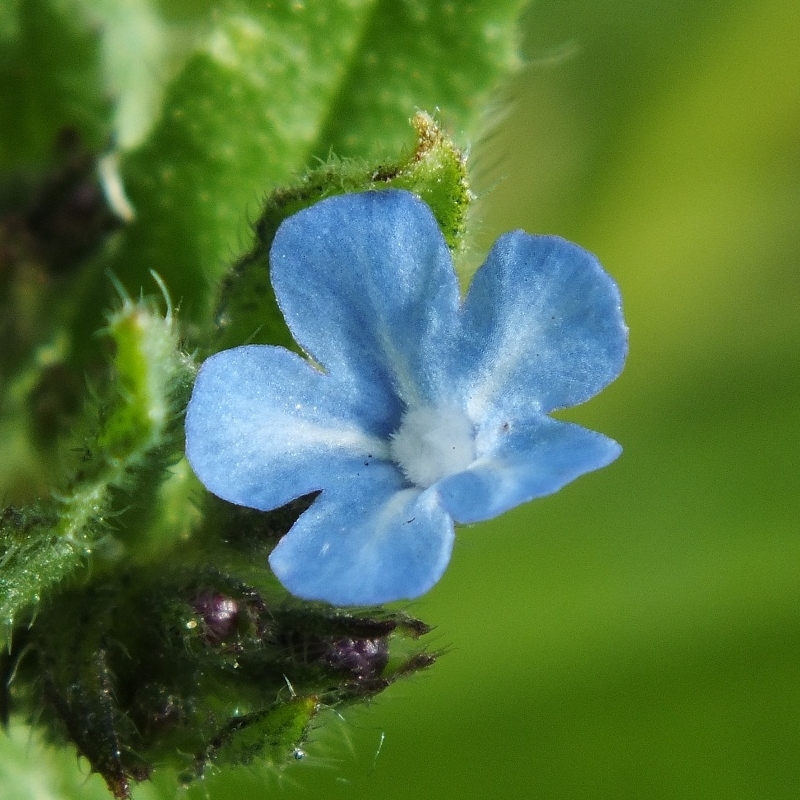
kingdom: Plantae
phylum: Tracheophyta
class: Magnoliopsida
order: Boraginales
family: Boraginaceae
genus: Lycopsis
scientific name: Lycopsis arvensis
